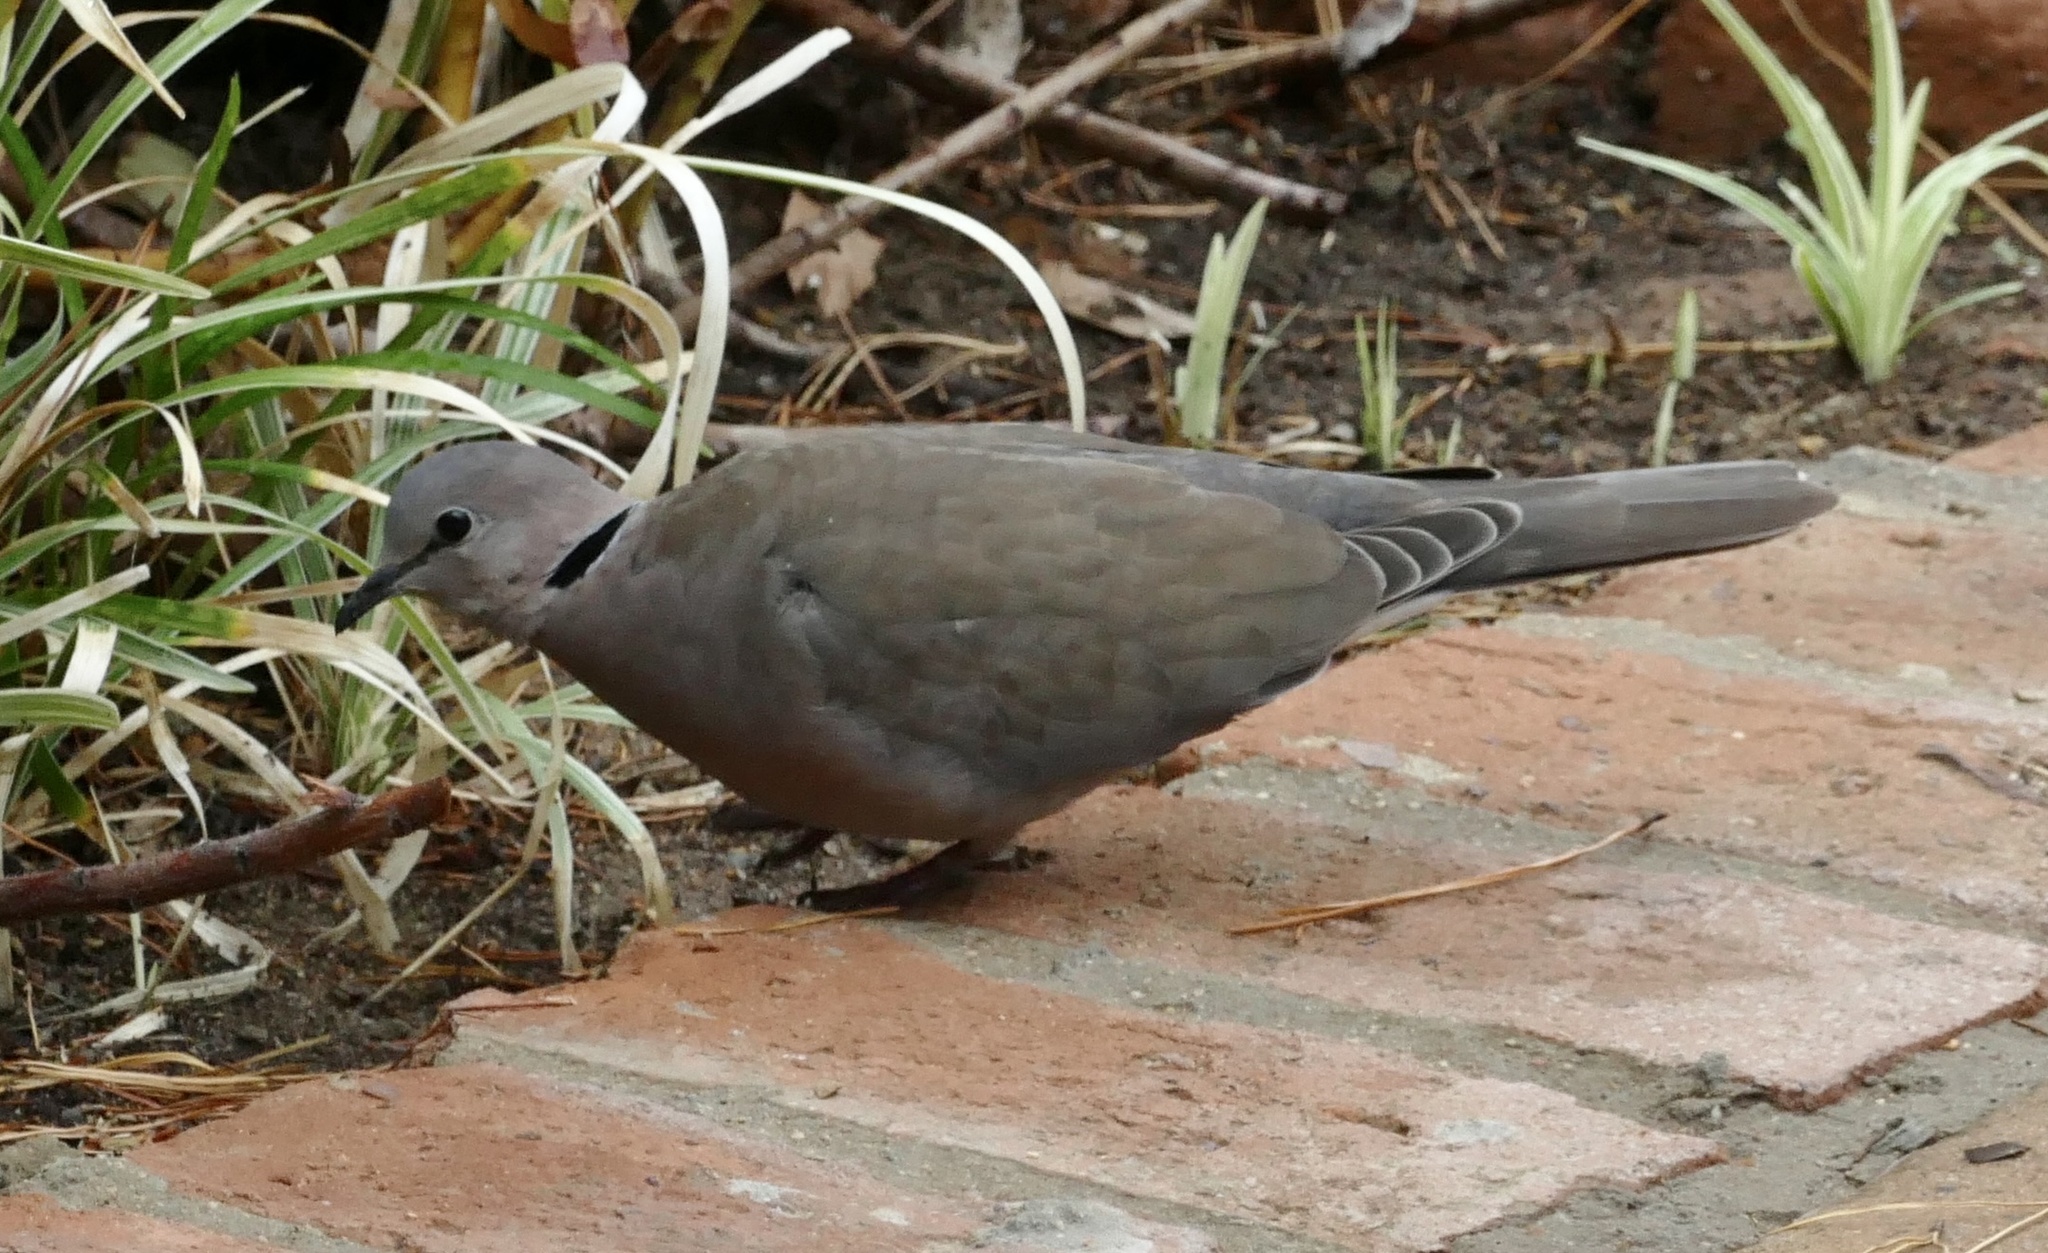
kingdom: Animalia
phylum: Chordata
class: Aves
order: Columbiformes
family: Columbidae
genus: Streptopelia
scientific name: Streptopelia capicola
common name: Ring-necked dove
